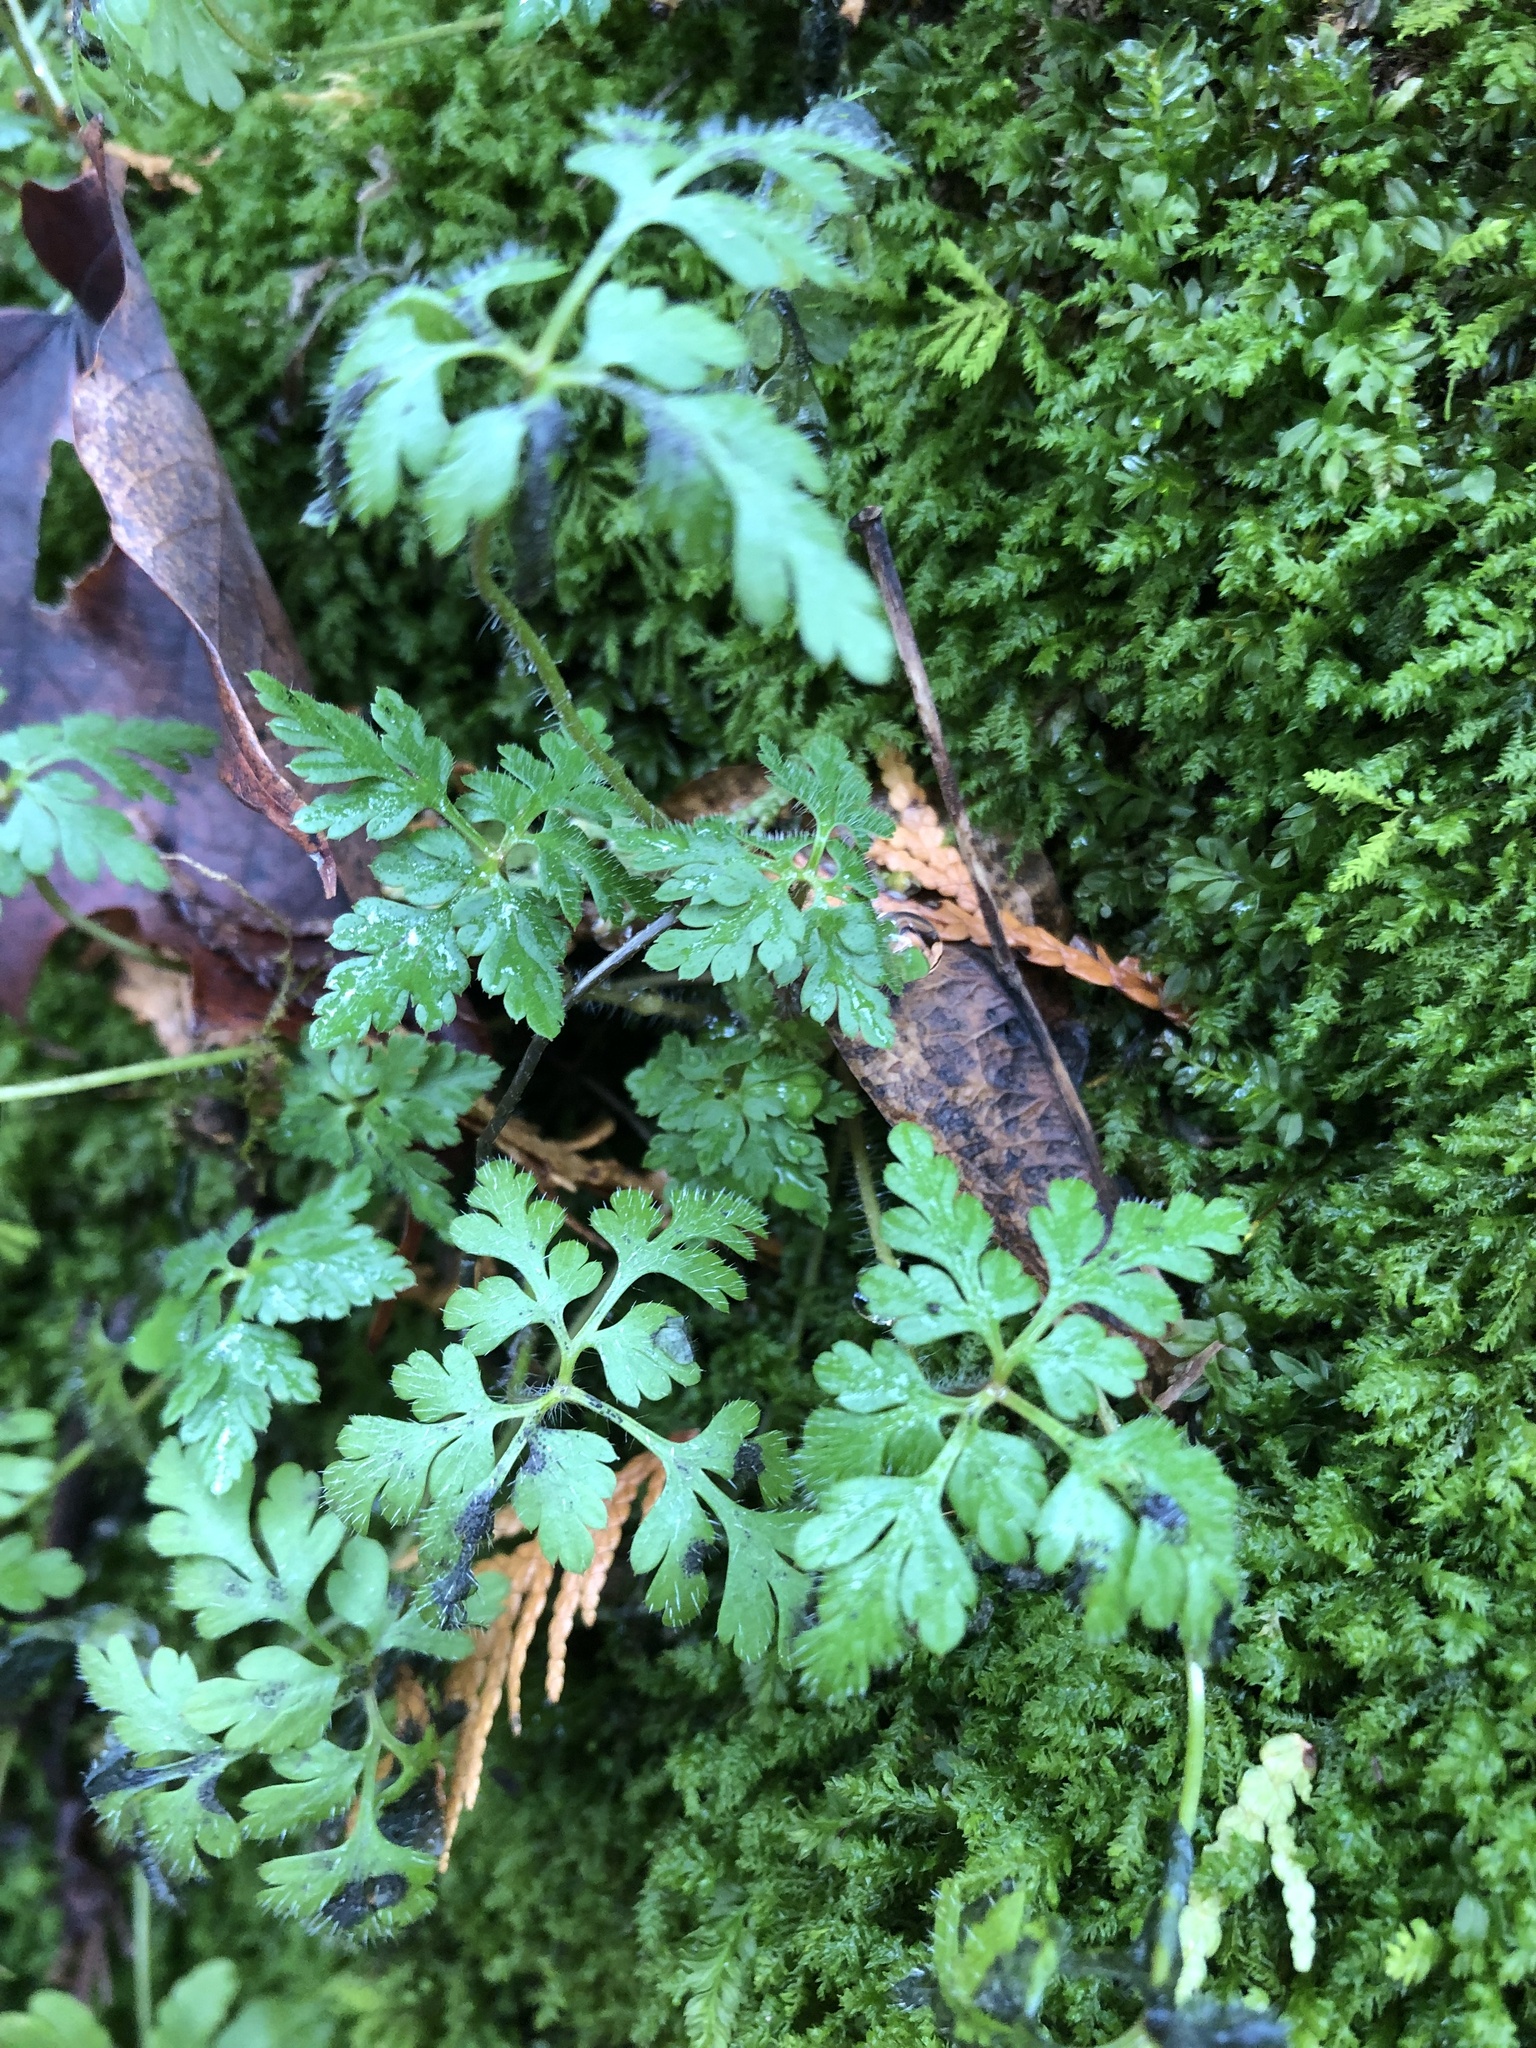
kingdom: Plantae
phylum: Tracheophyta
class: Magnoliopsida
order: Geraniales
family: Geraniaceae
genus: Geranium
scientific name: Geranium robertianum
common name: Herb-robert
